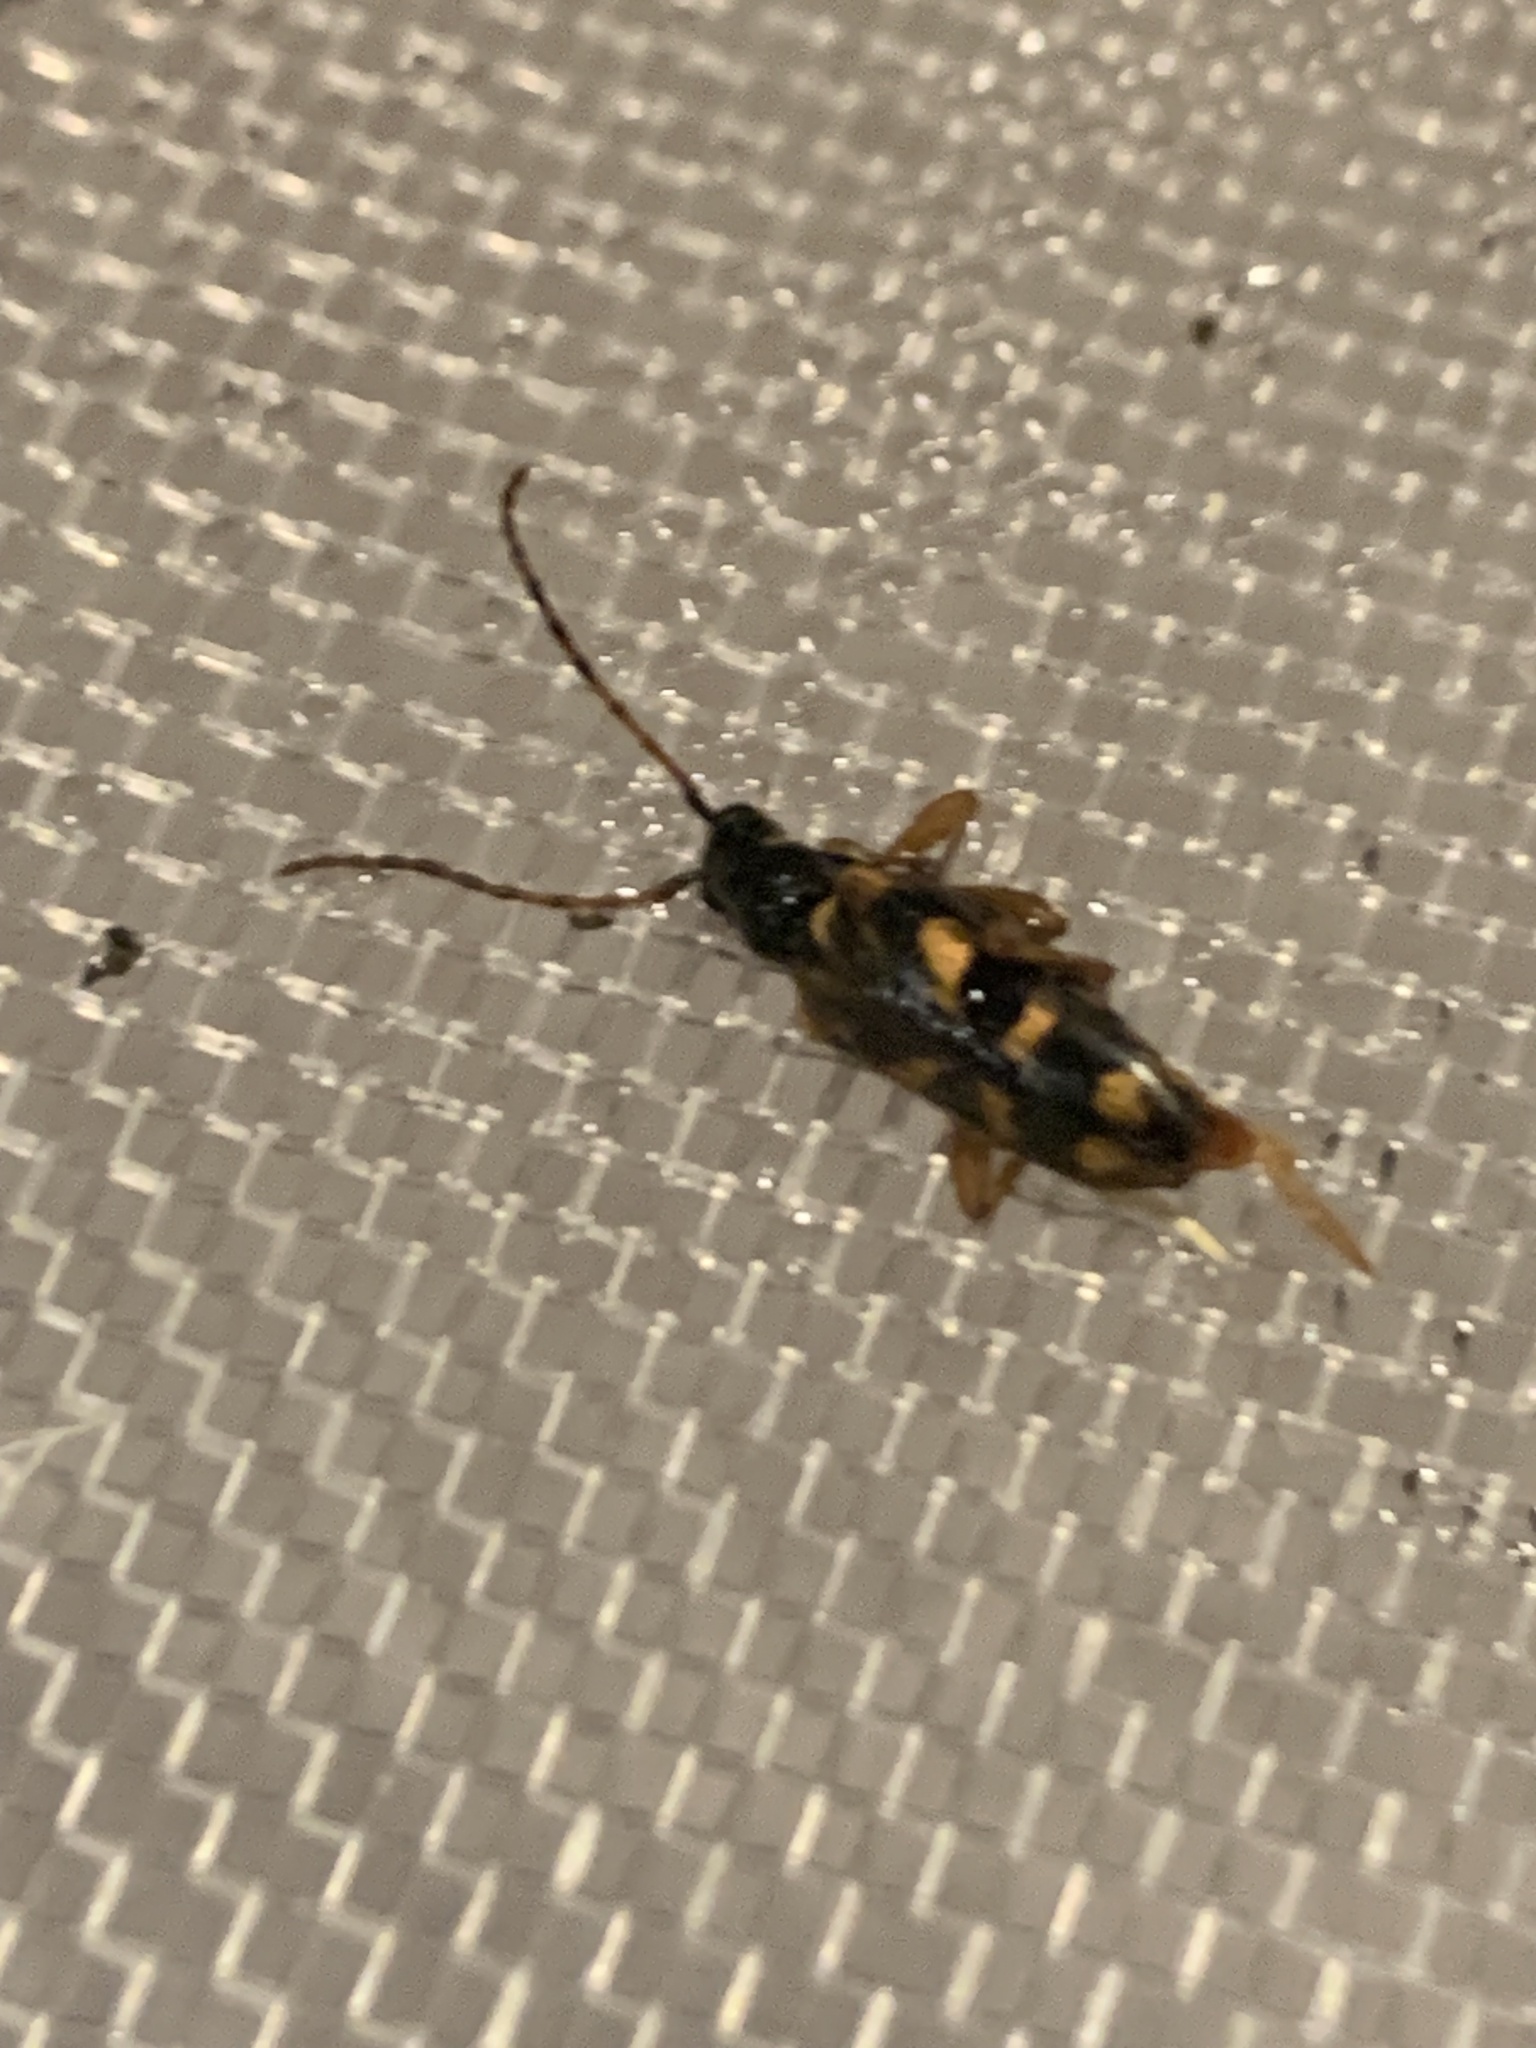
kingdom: Animalia
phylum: Arthropoda
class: Insecta
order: Coleoptera
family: Cerambycidae
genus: Xestoleptura
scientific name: Xestoleptura crassipes
